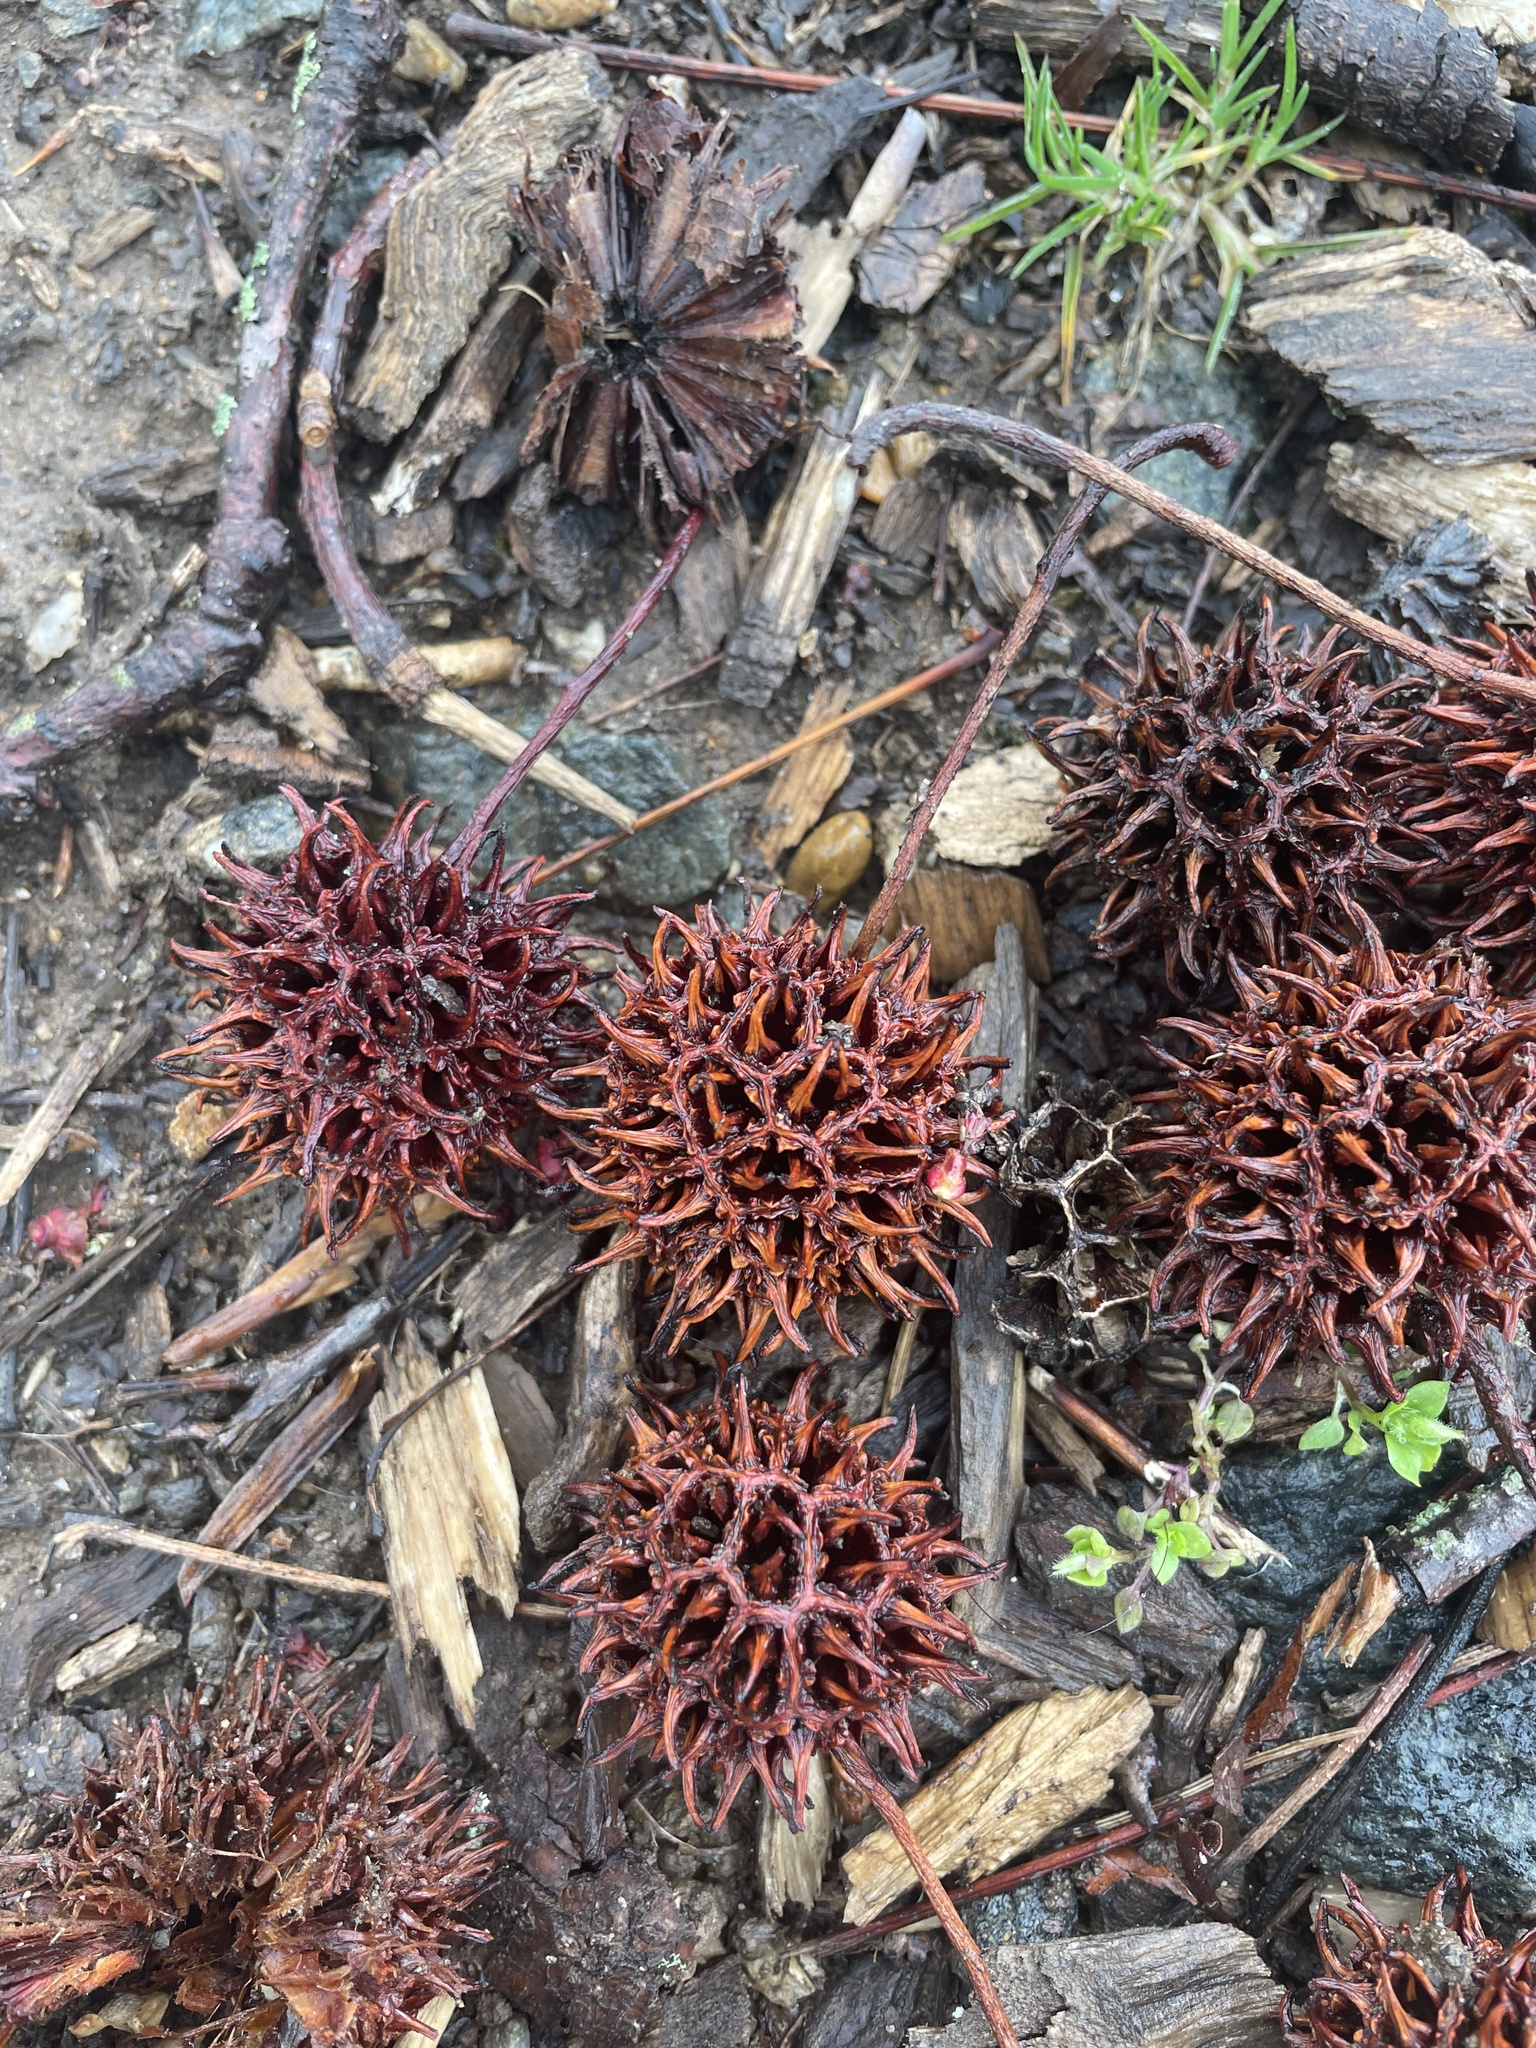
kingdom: Plantae
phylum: Tracheophyta
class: Magnoliopsida
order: Saxifragales
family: Altingiaceae
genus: Liquidambar
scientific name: Liquidambar styraciflua
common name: Sweet gum
